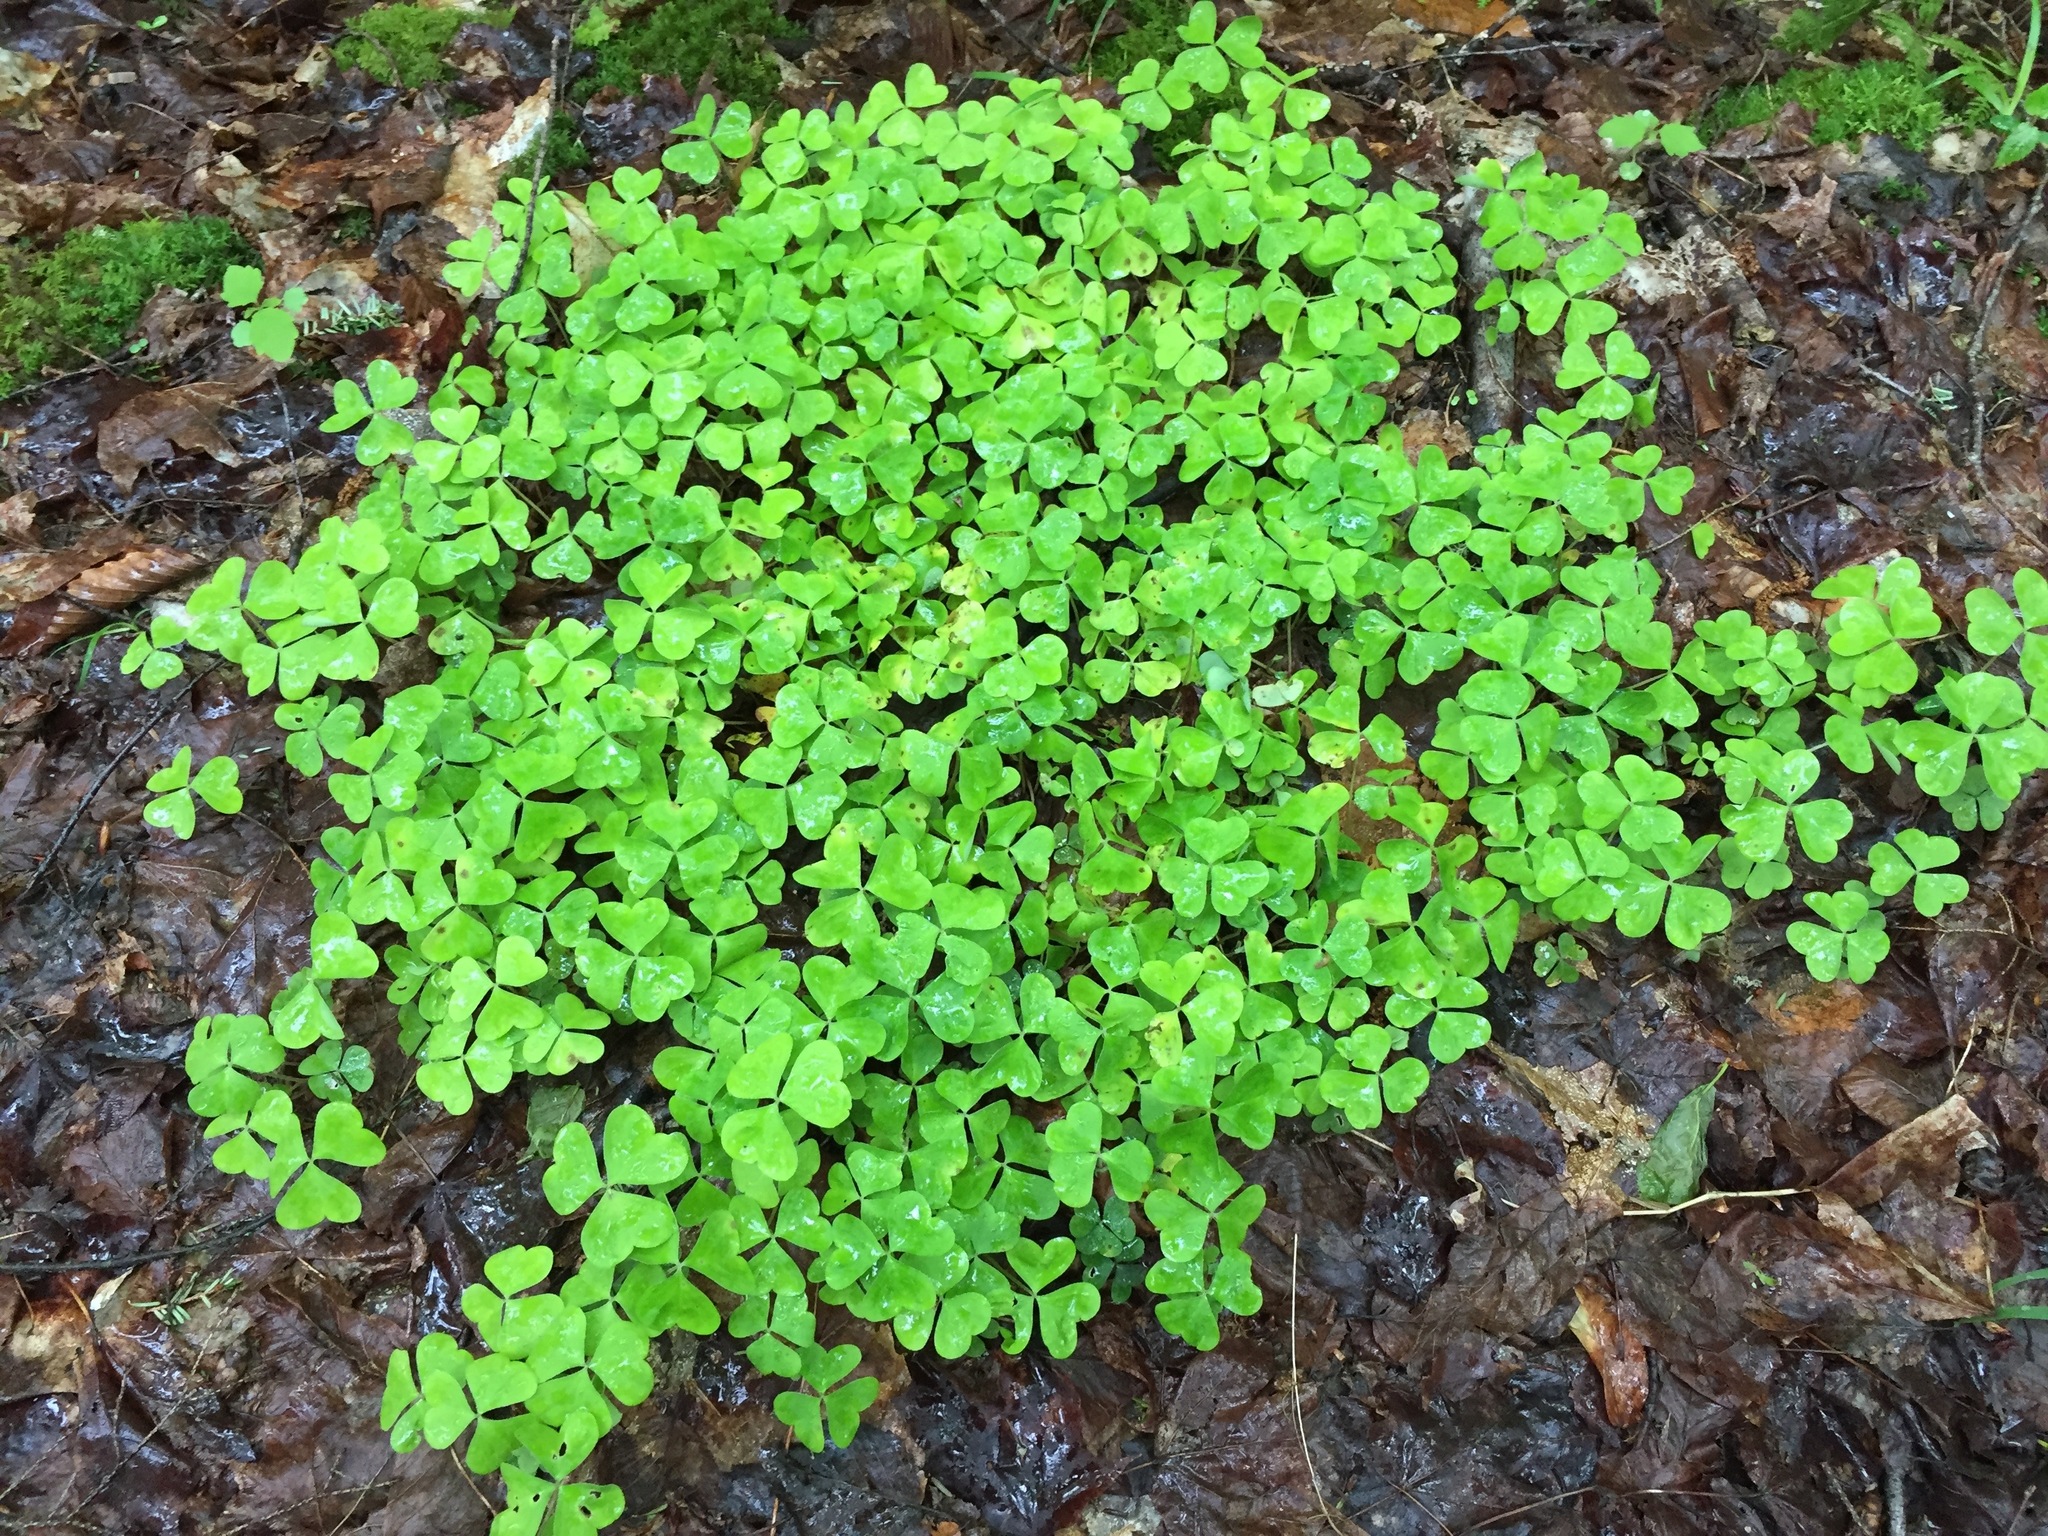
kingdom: Plantae
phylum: Tracheophyta
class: Magnoliopsida
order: Oxalidales
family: Oxalidaceae
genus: Oxalis
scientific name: Oxalis montana
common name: American wood-sorrel
